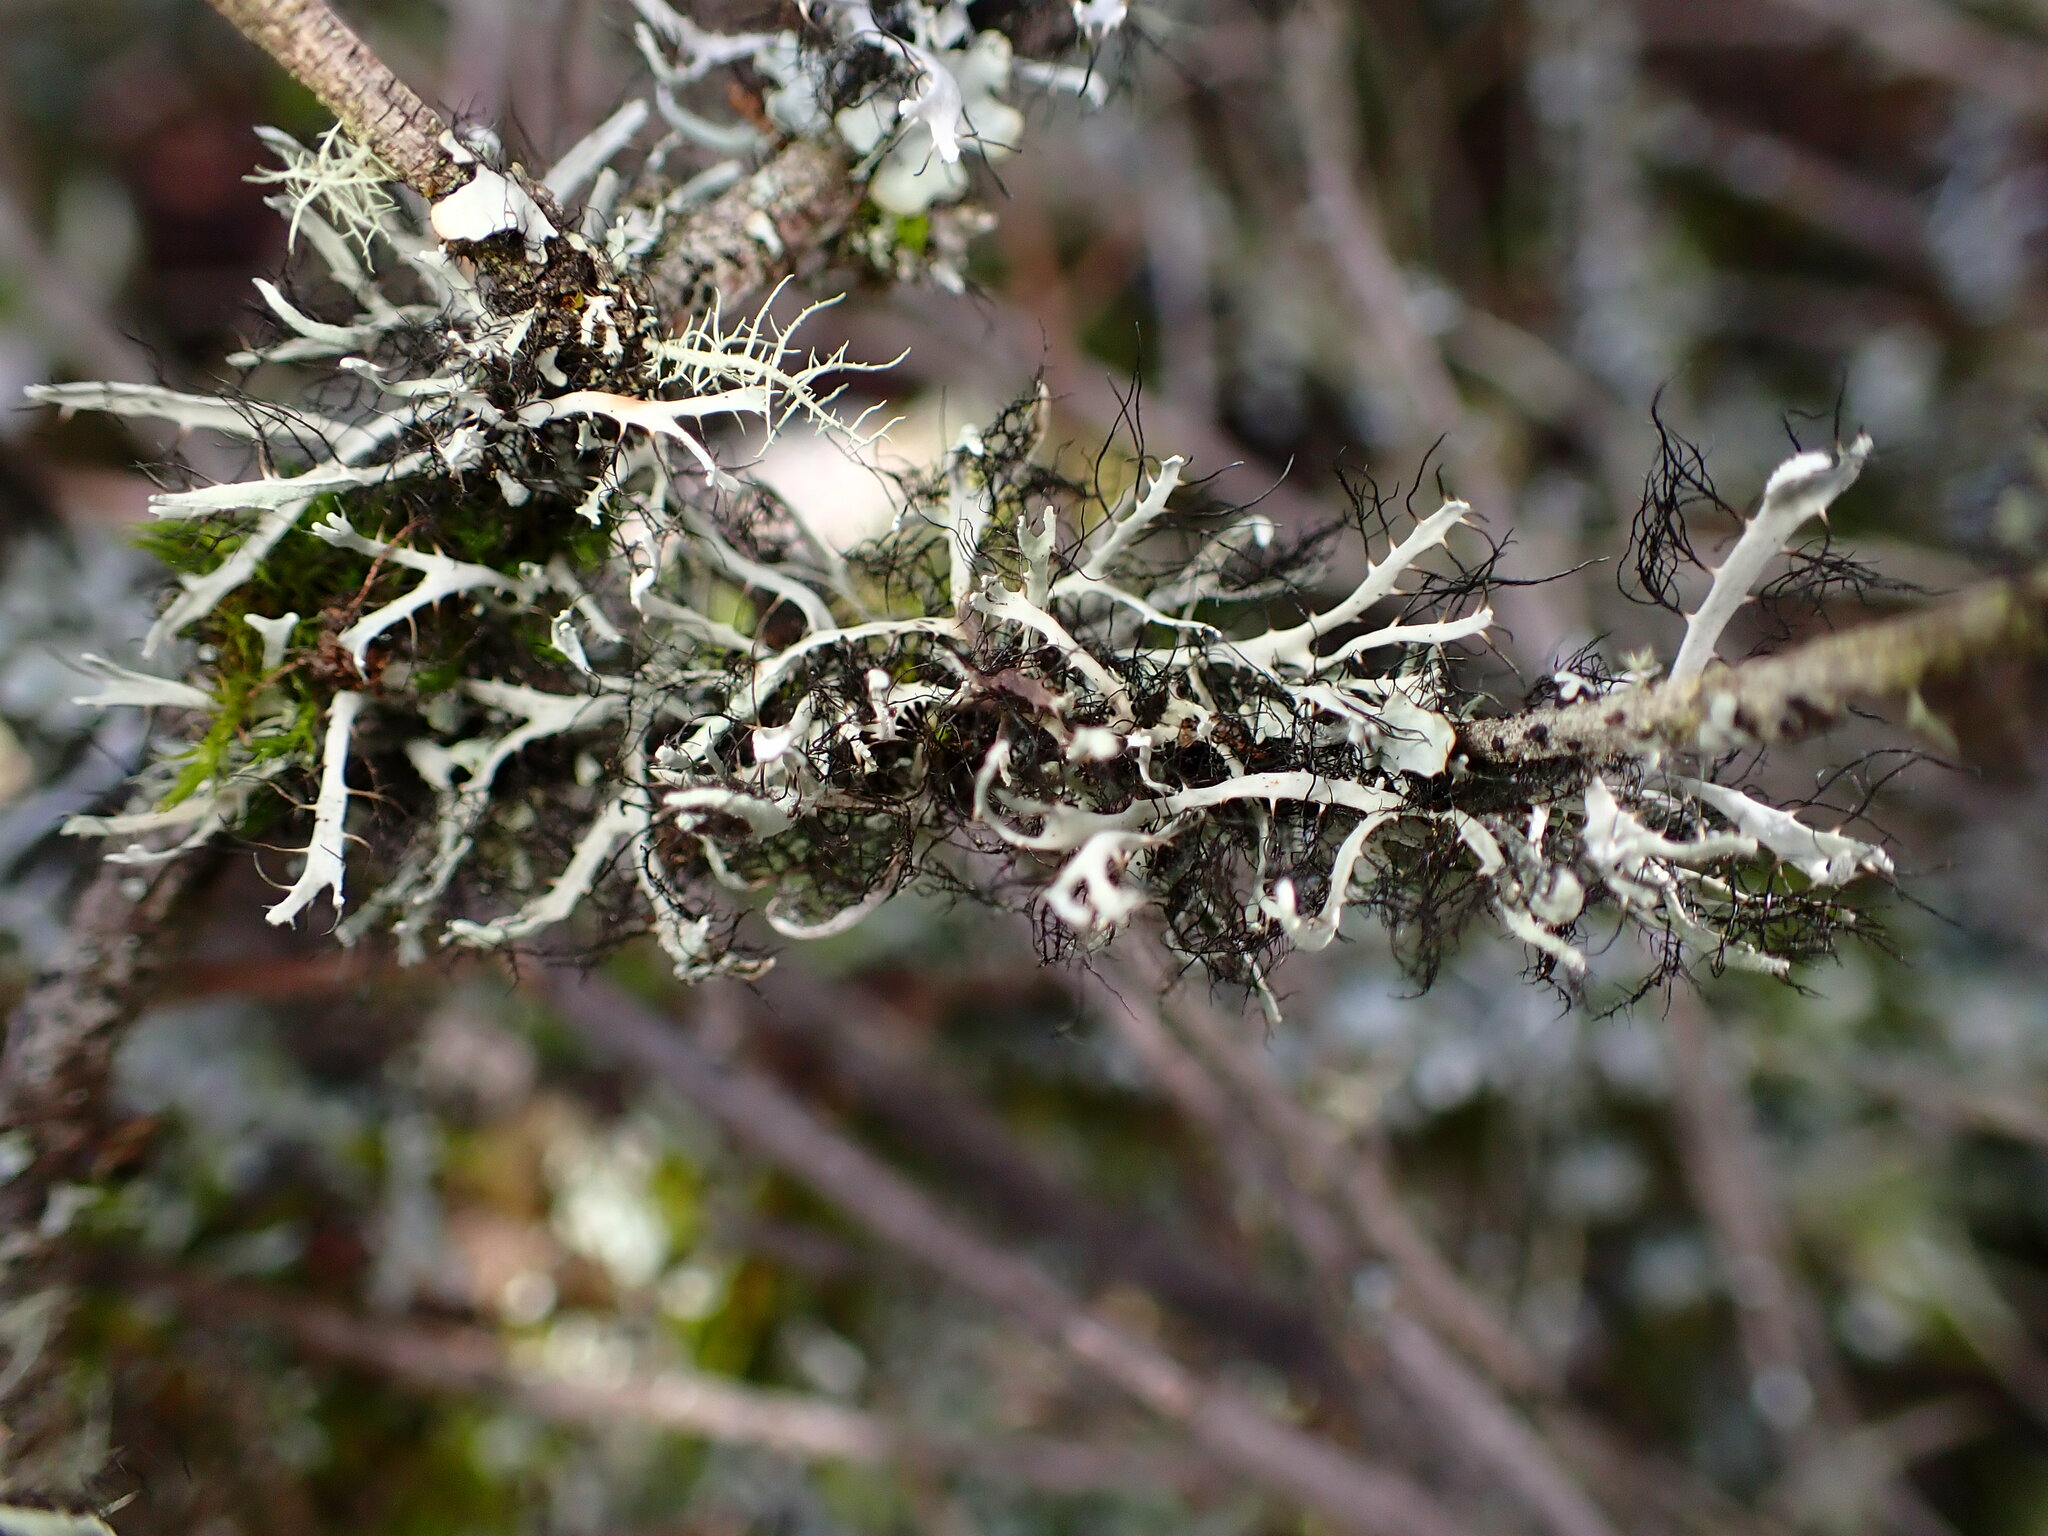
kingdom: Fungi
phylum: Ascomycota
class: Lecanoromycetes
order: Caliciales
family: Physciaceae
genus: Leucodermia
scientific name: Leucodermia leucomelos
